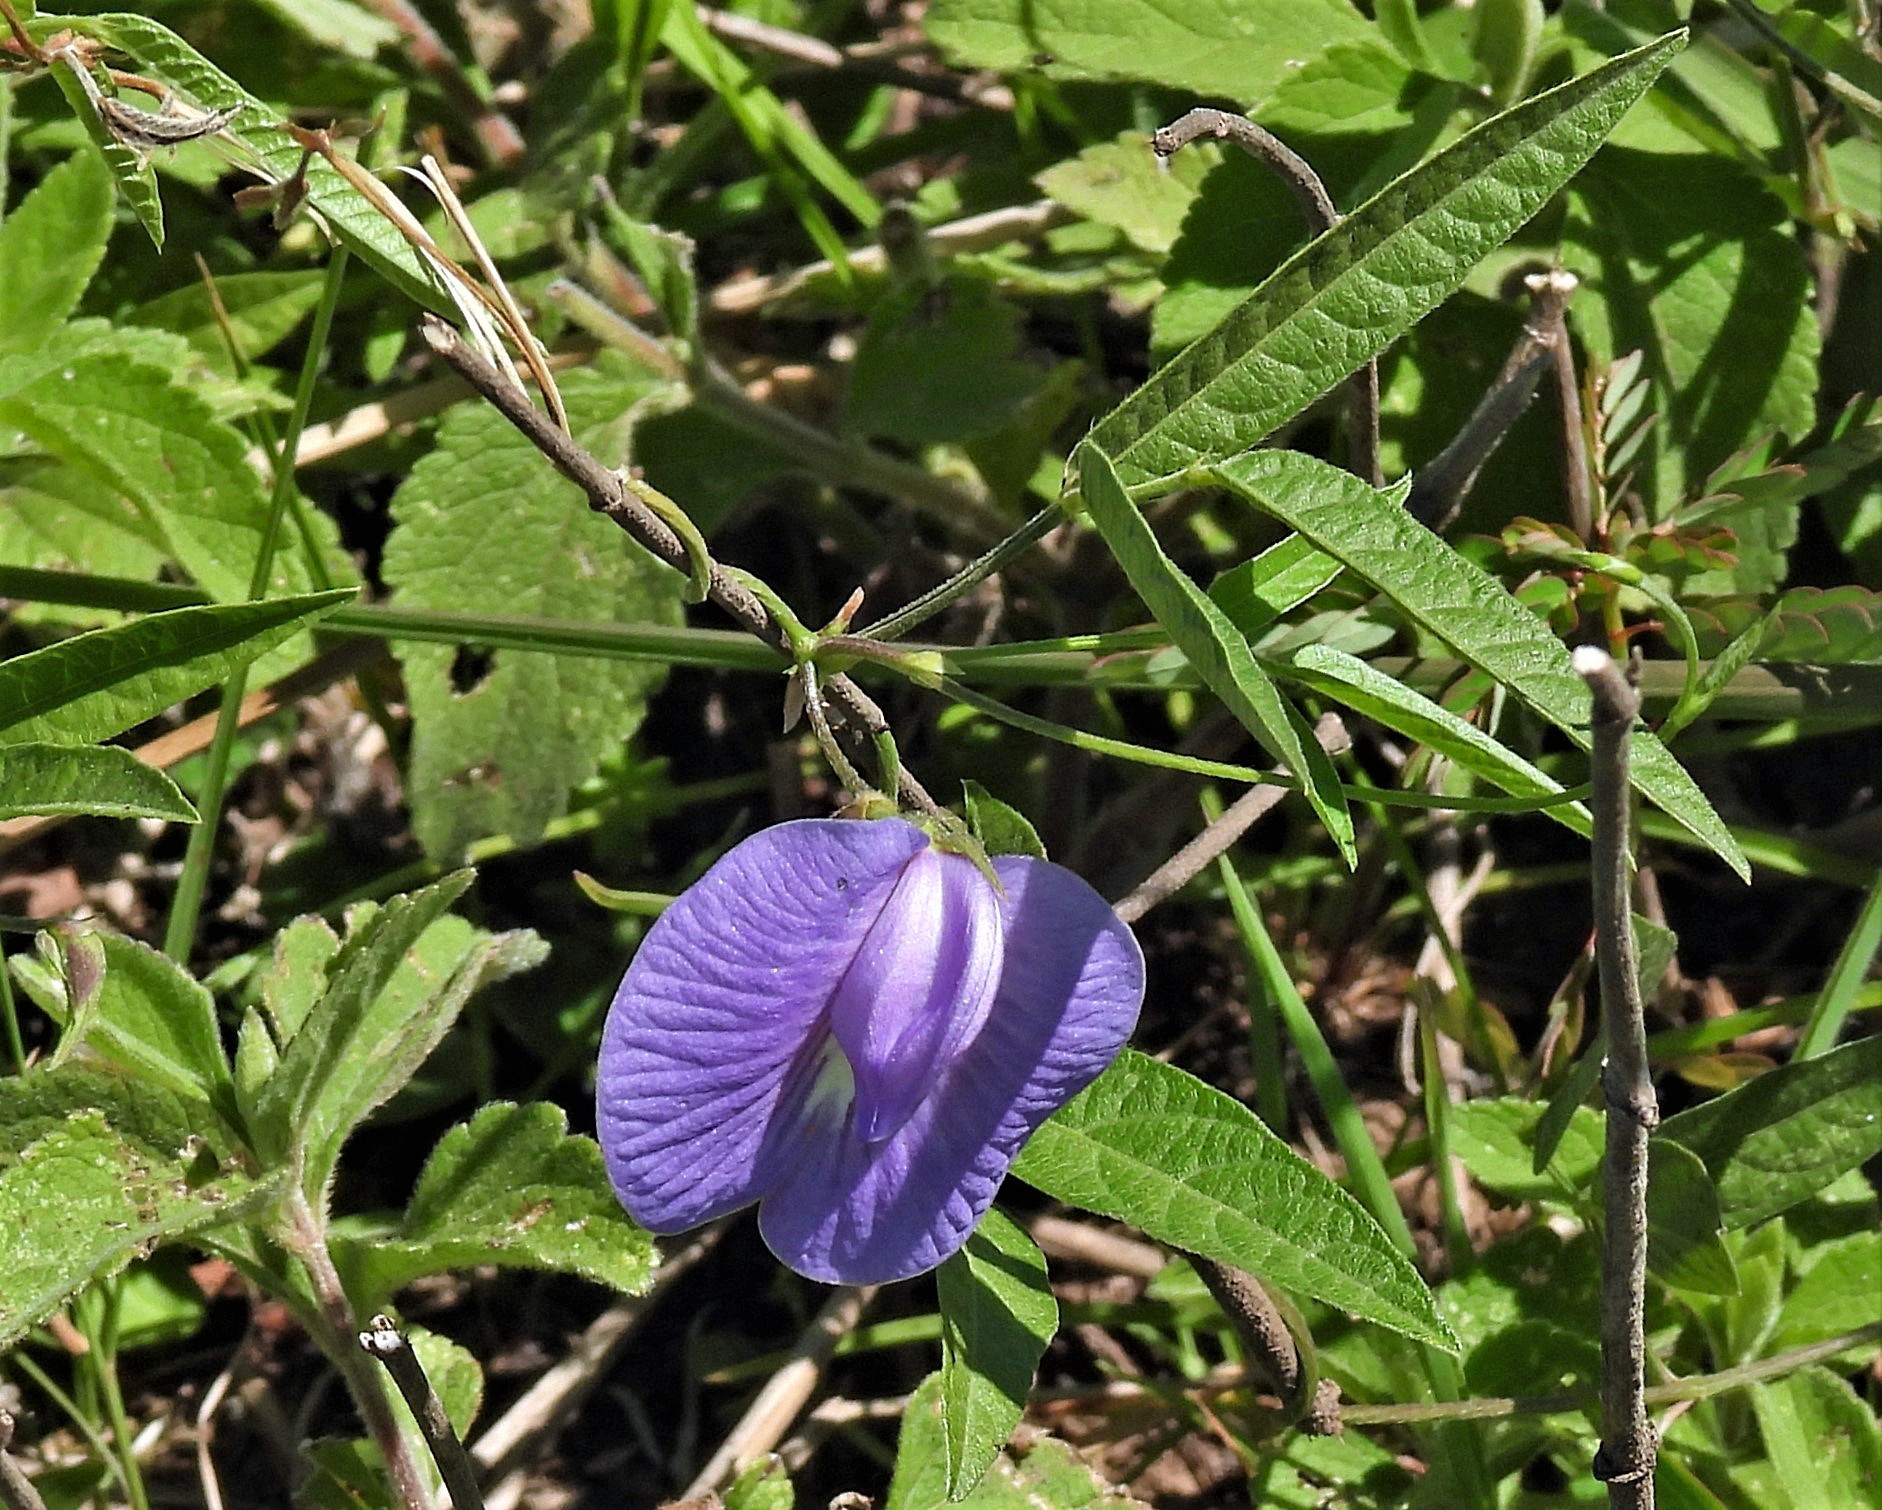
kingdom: Plantae
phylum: Tracheophyta
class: Magnoliopsida
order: Fabales
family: Fabaceae
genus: Centrosema
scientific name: Centrosema virginianum
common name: Butterfly-pea
